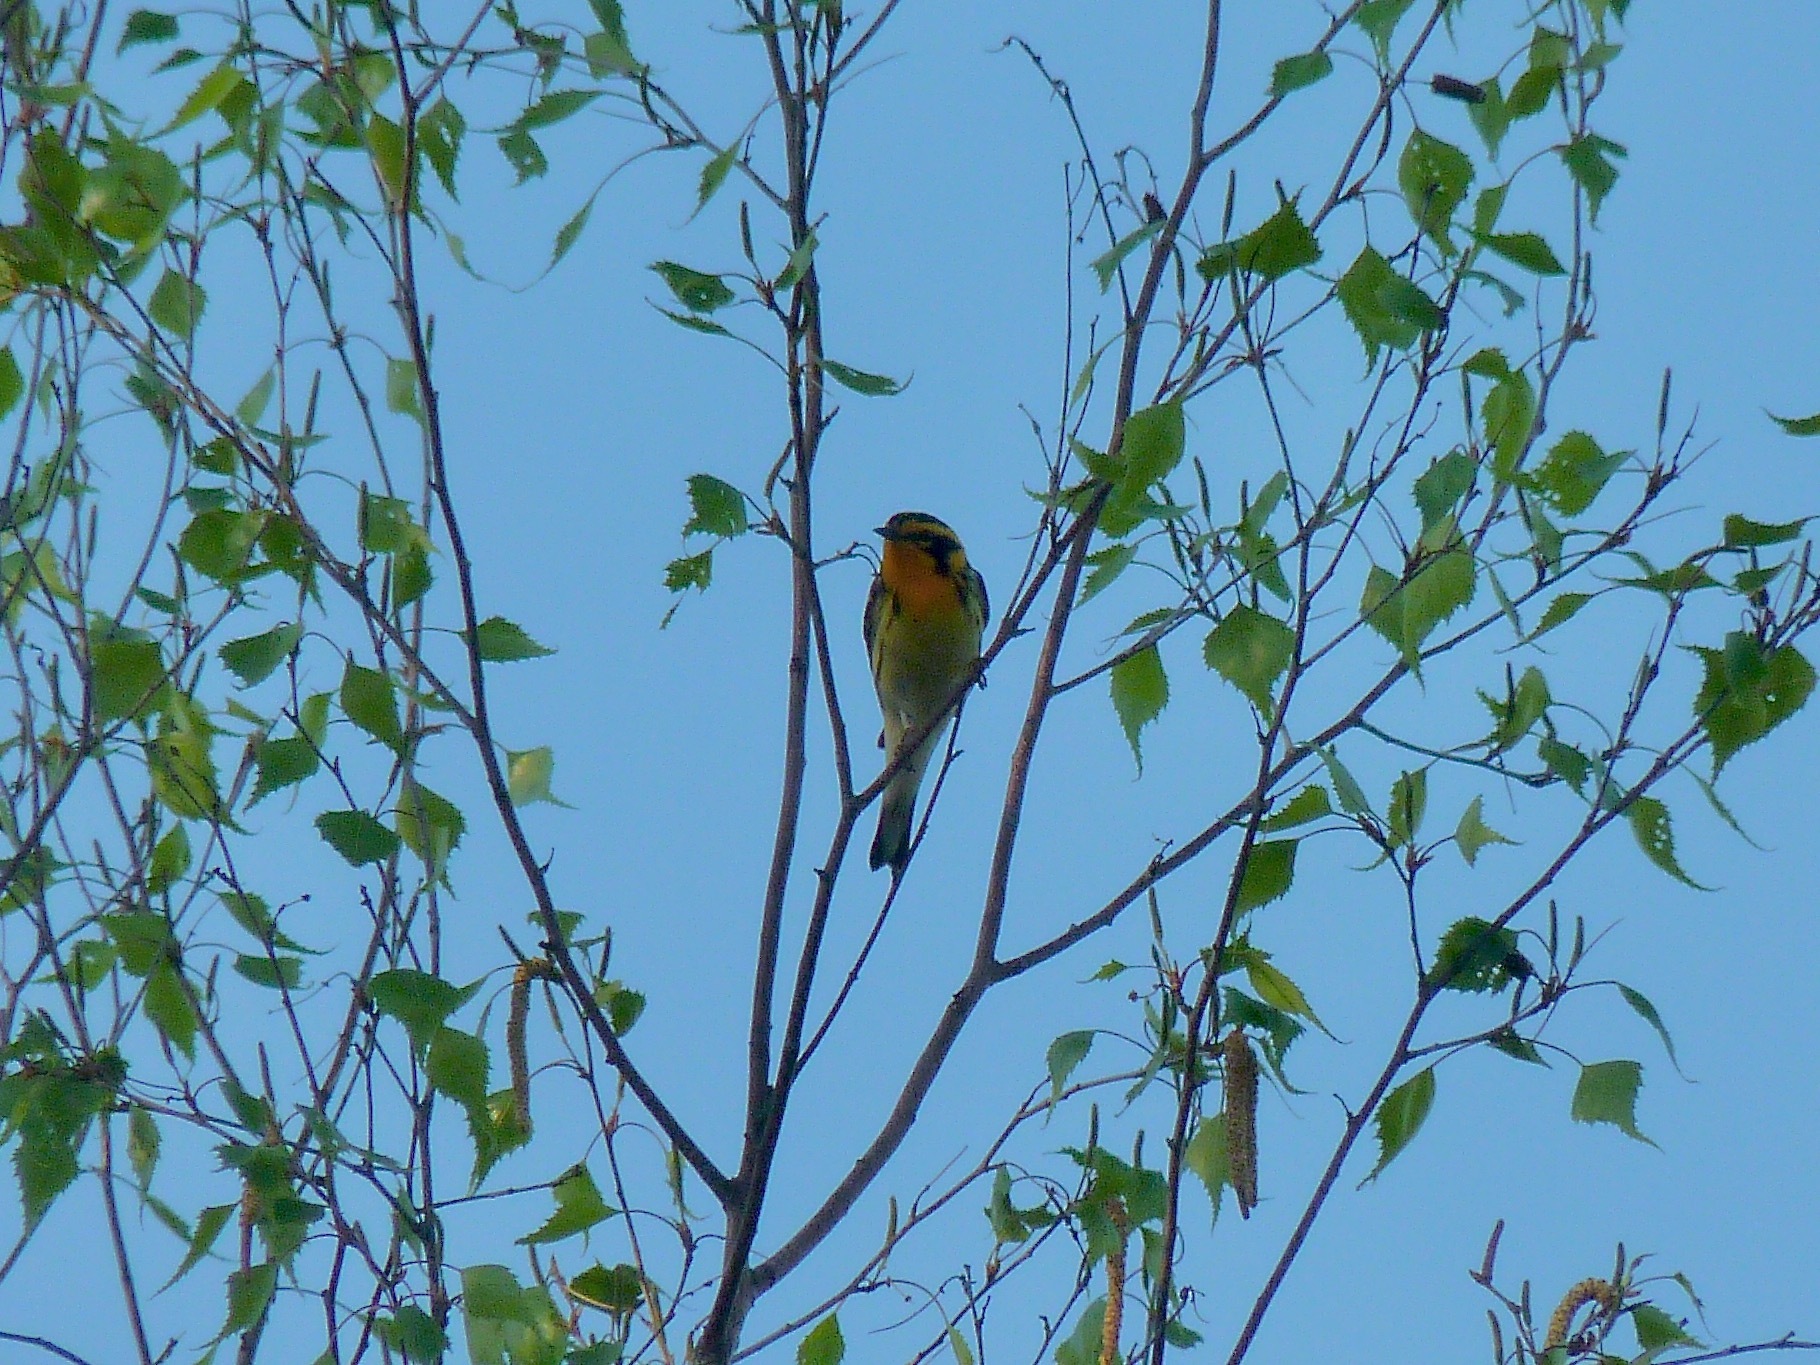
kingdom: Animalia
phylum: Chordata
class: Aves
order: Passeriformes
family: Parulidae
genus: Setophaga
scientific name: Setophaga fusca
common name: Blackburnian warbler
